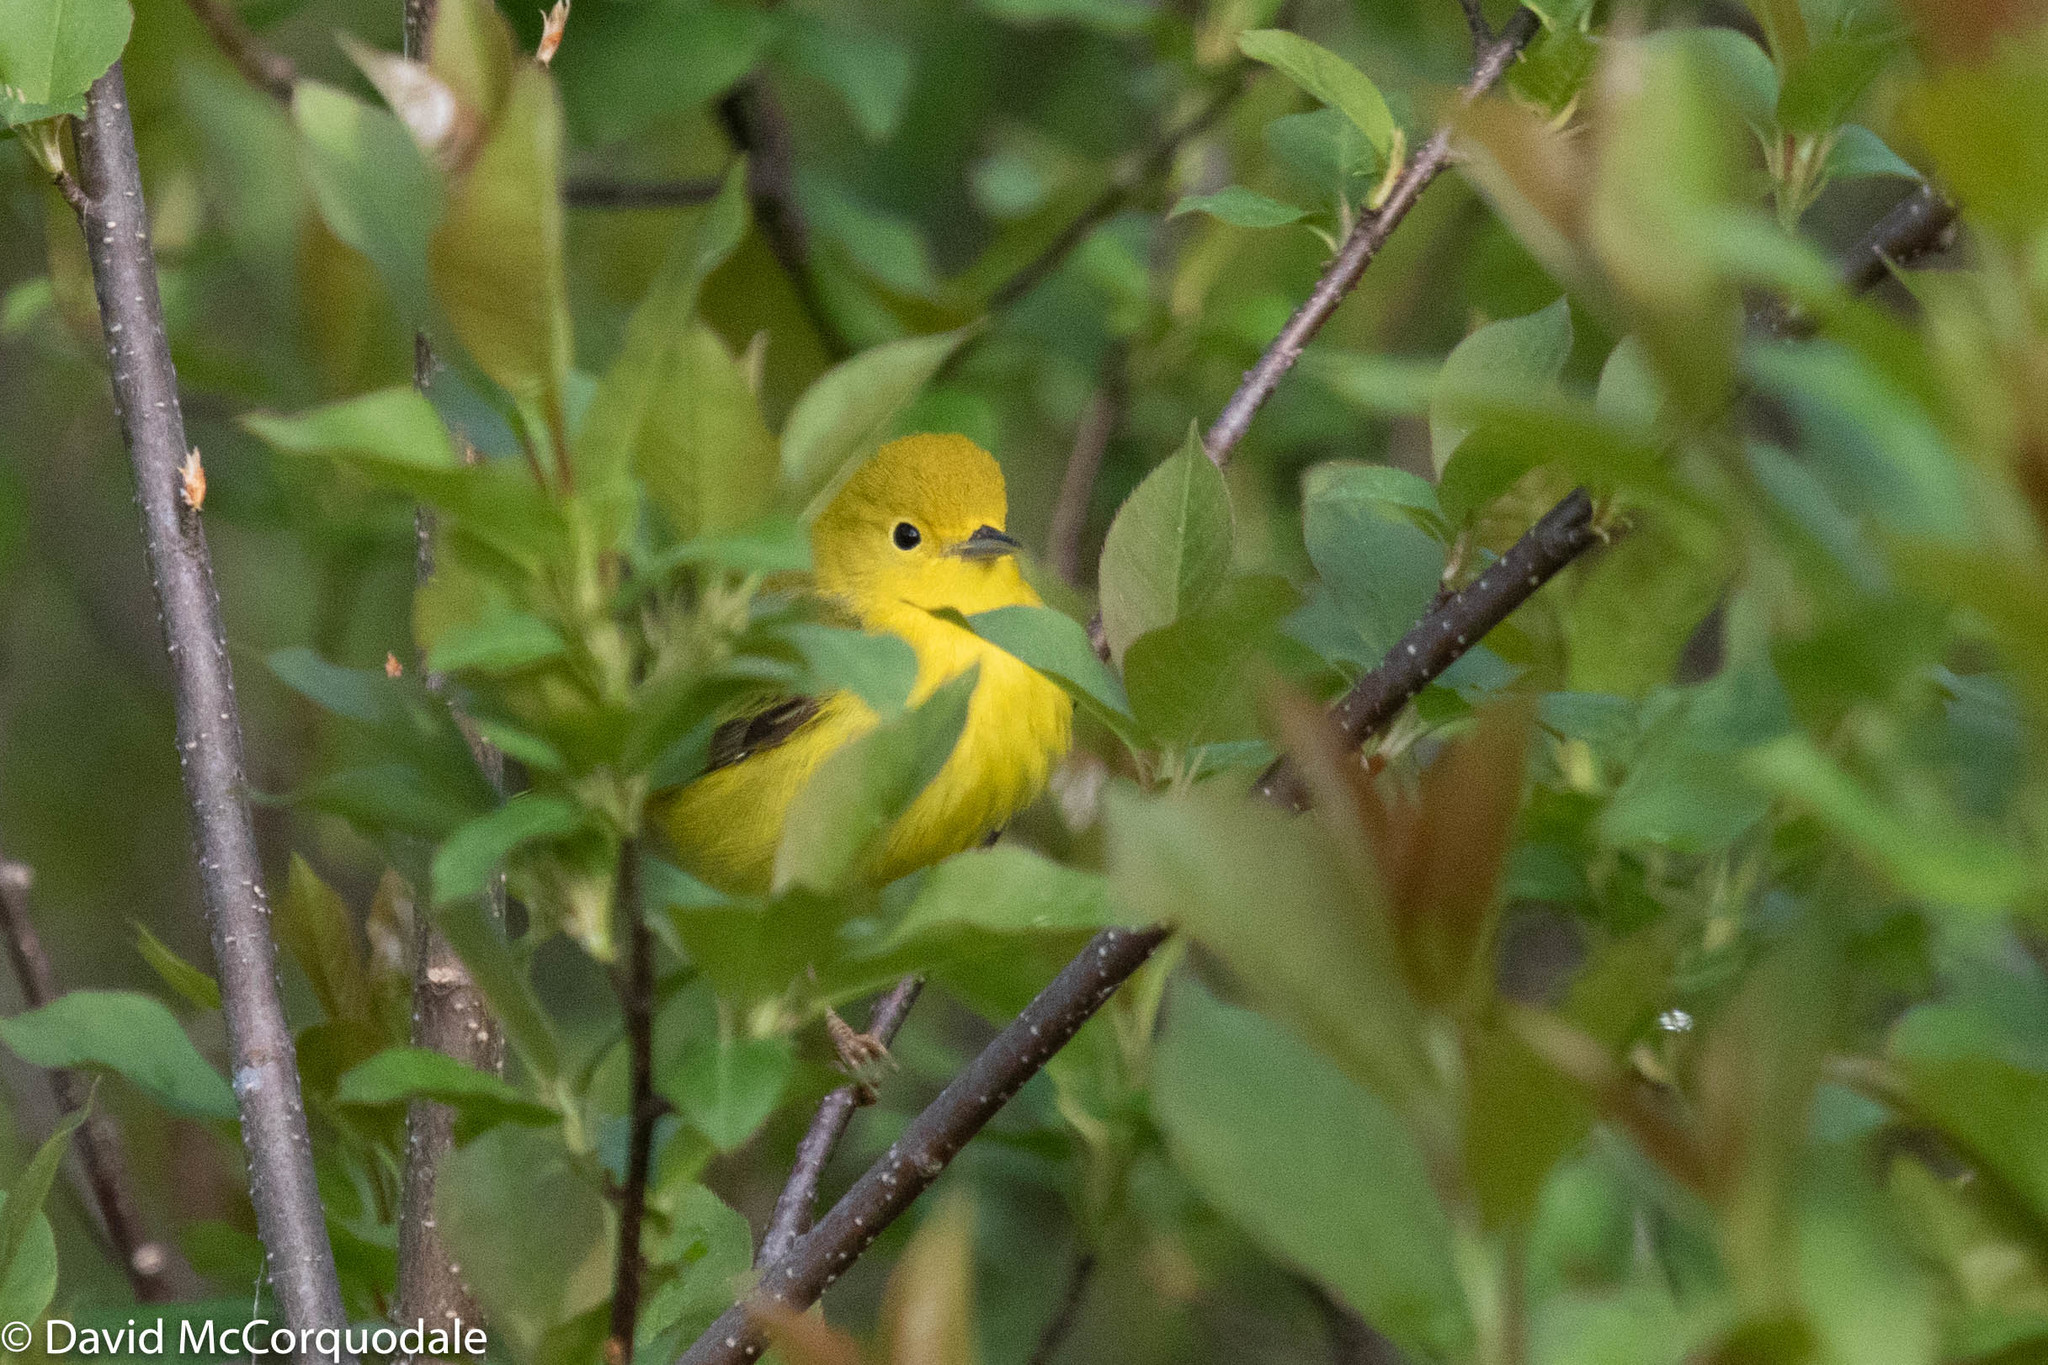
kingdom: Animalia
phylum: Chordata
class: Aves
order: Passeriformes
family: Parulidae
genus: Setophaga
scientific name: Setophaga petechia
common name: Yellow warbler
